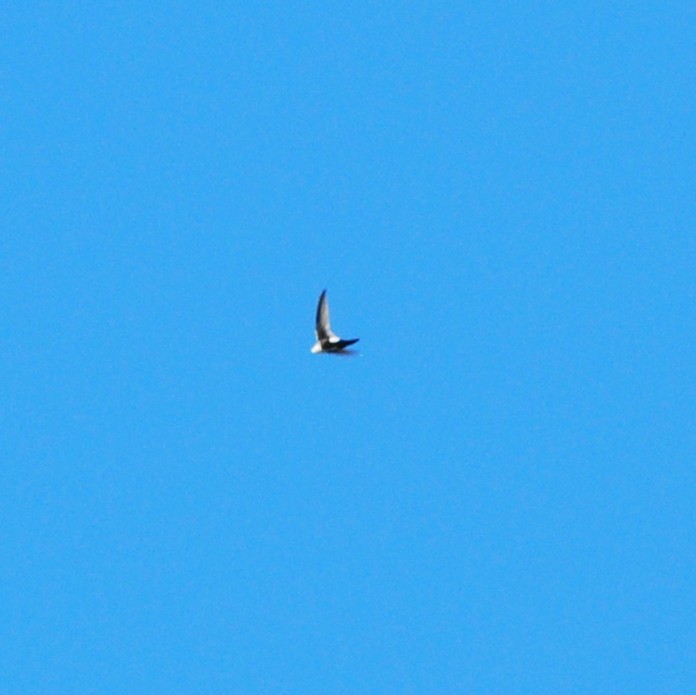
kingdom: Animalia
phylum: Chordata
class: Aves
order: Apodiformes
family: Apodidae
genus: Aeronautes
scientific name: Aeronautes saxatalis
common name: White-throated swift
